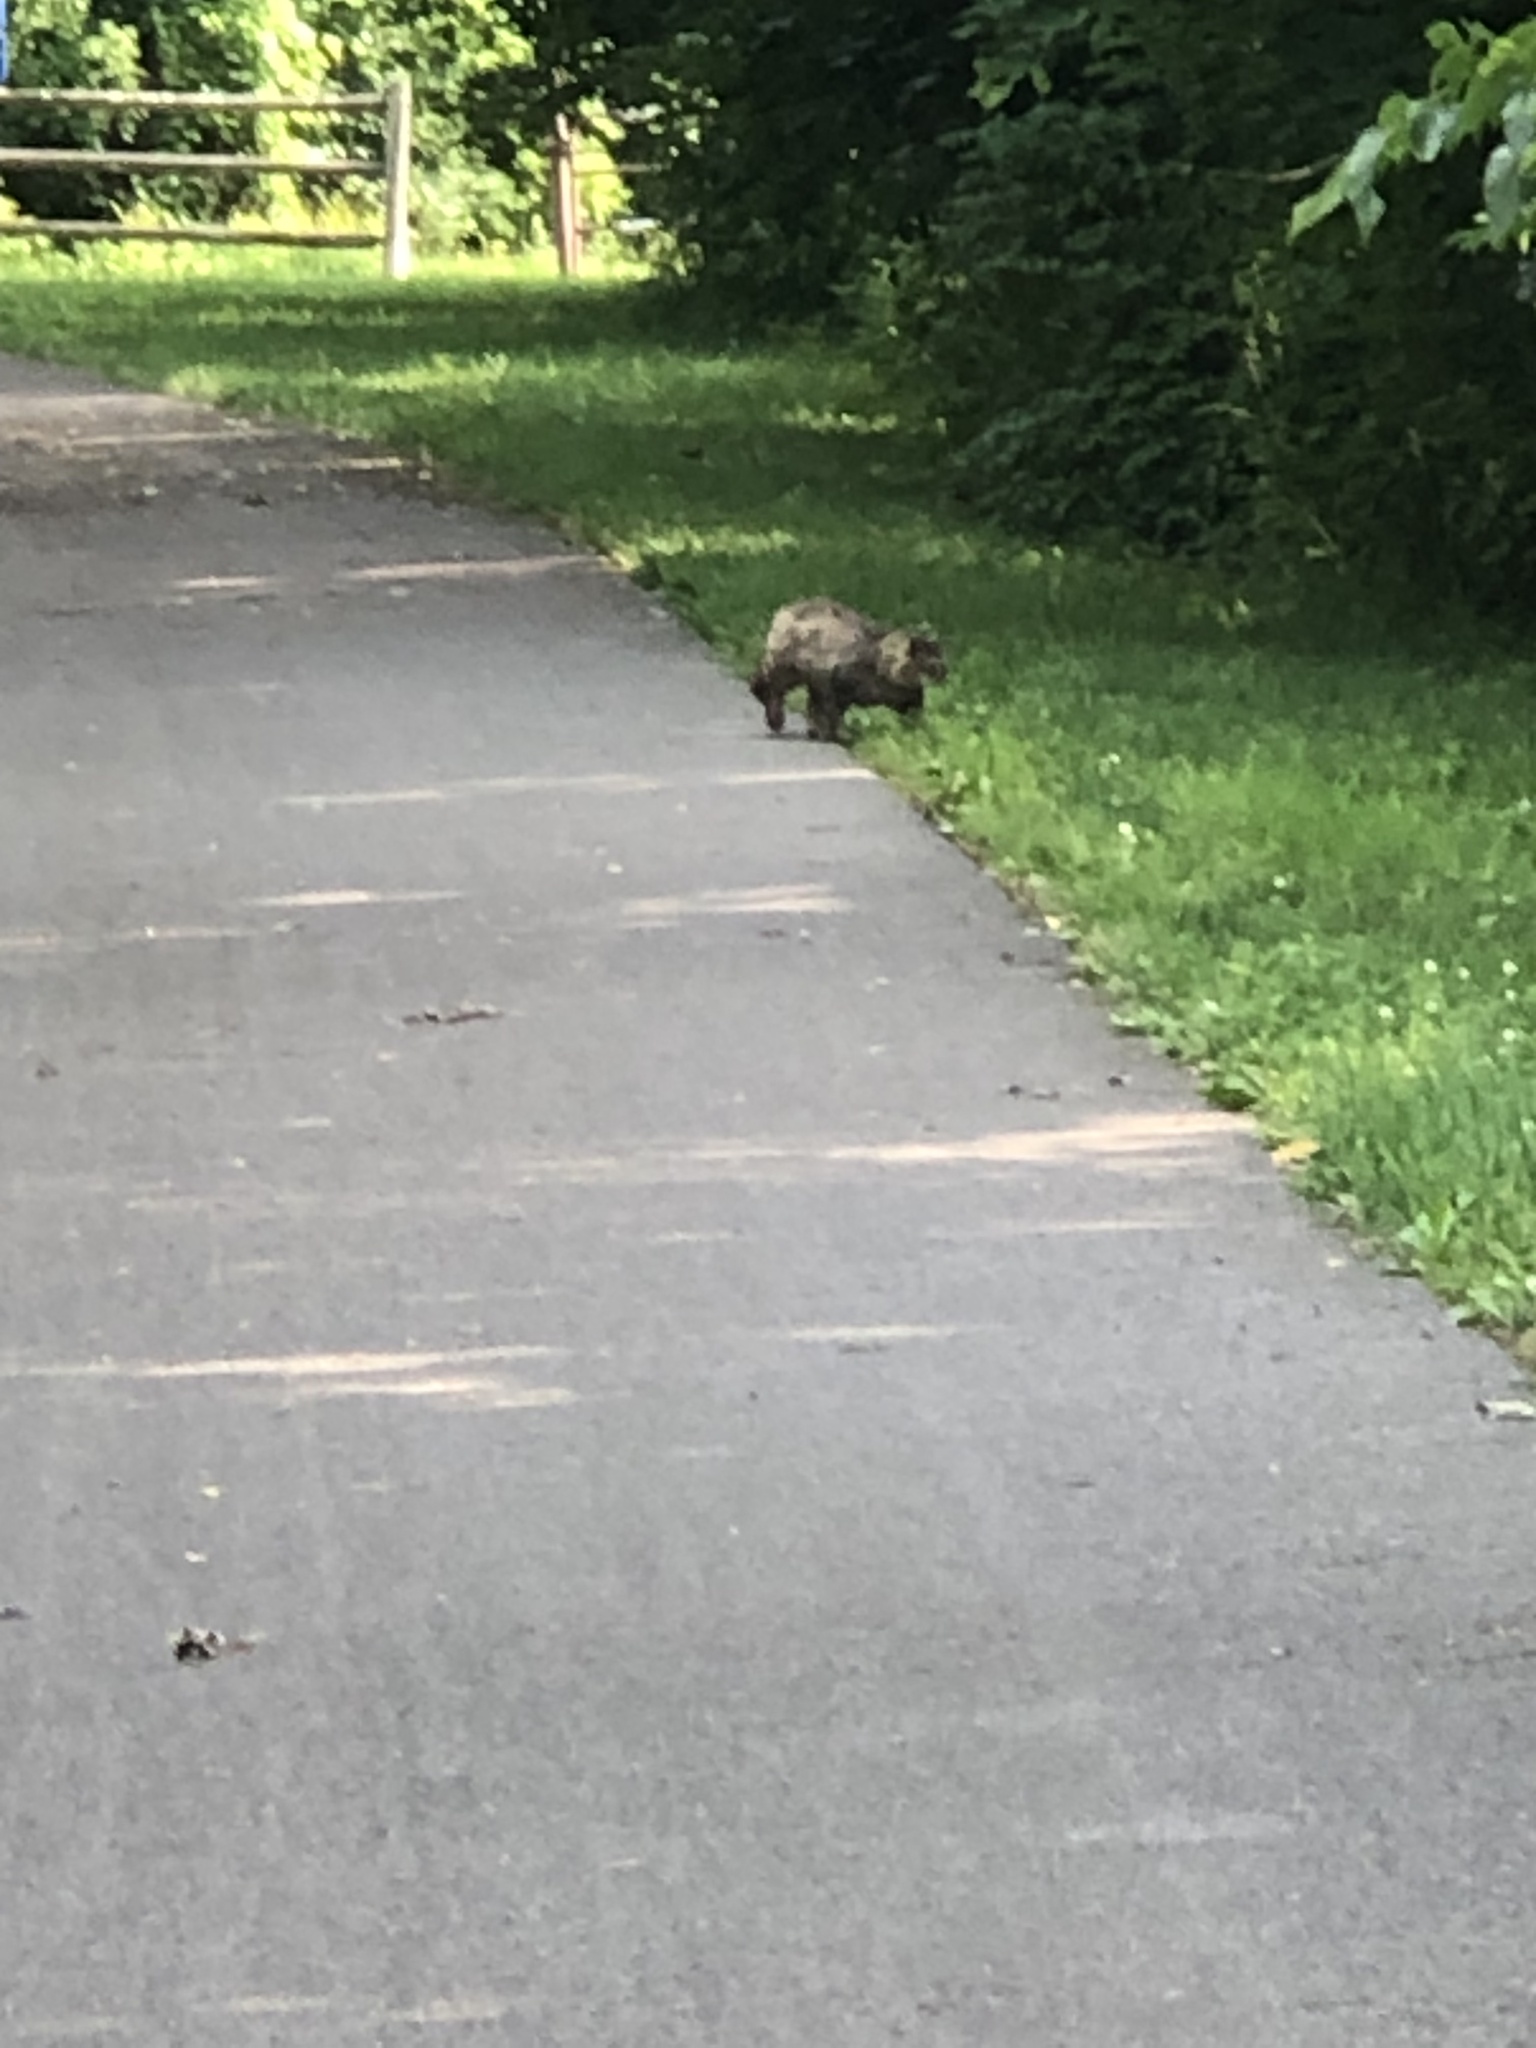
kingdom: Animalia
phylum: Chordata
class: Mammalia
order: Carnivora
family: Felidae
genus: Felis
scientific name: Felis catus
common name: Domestic cat
